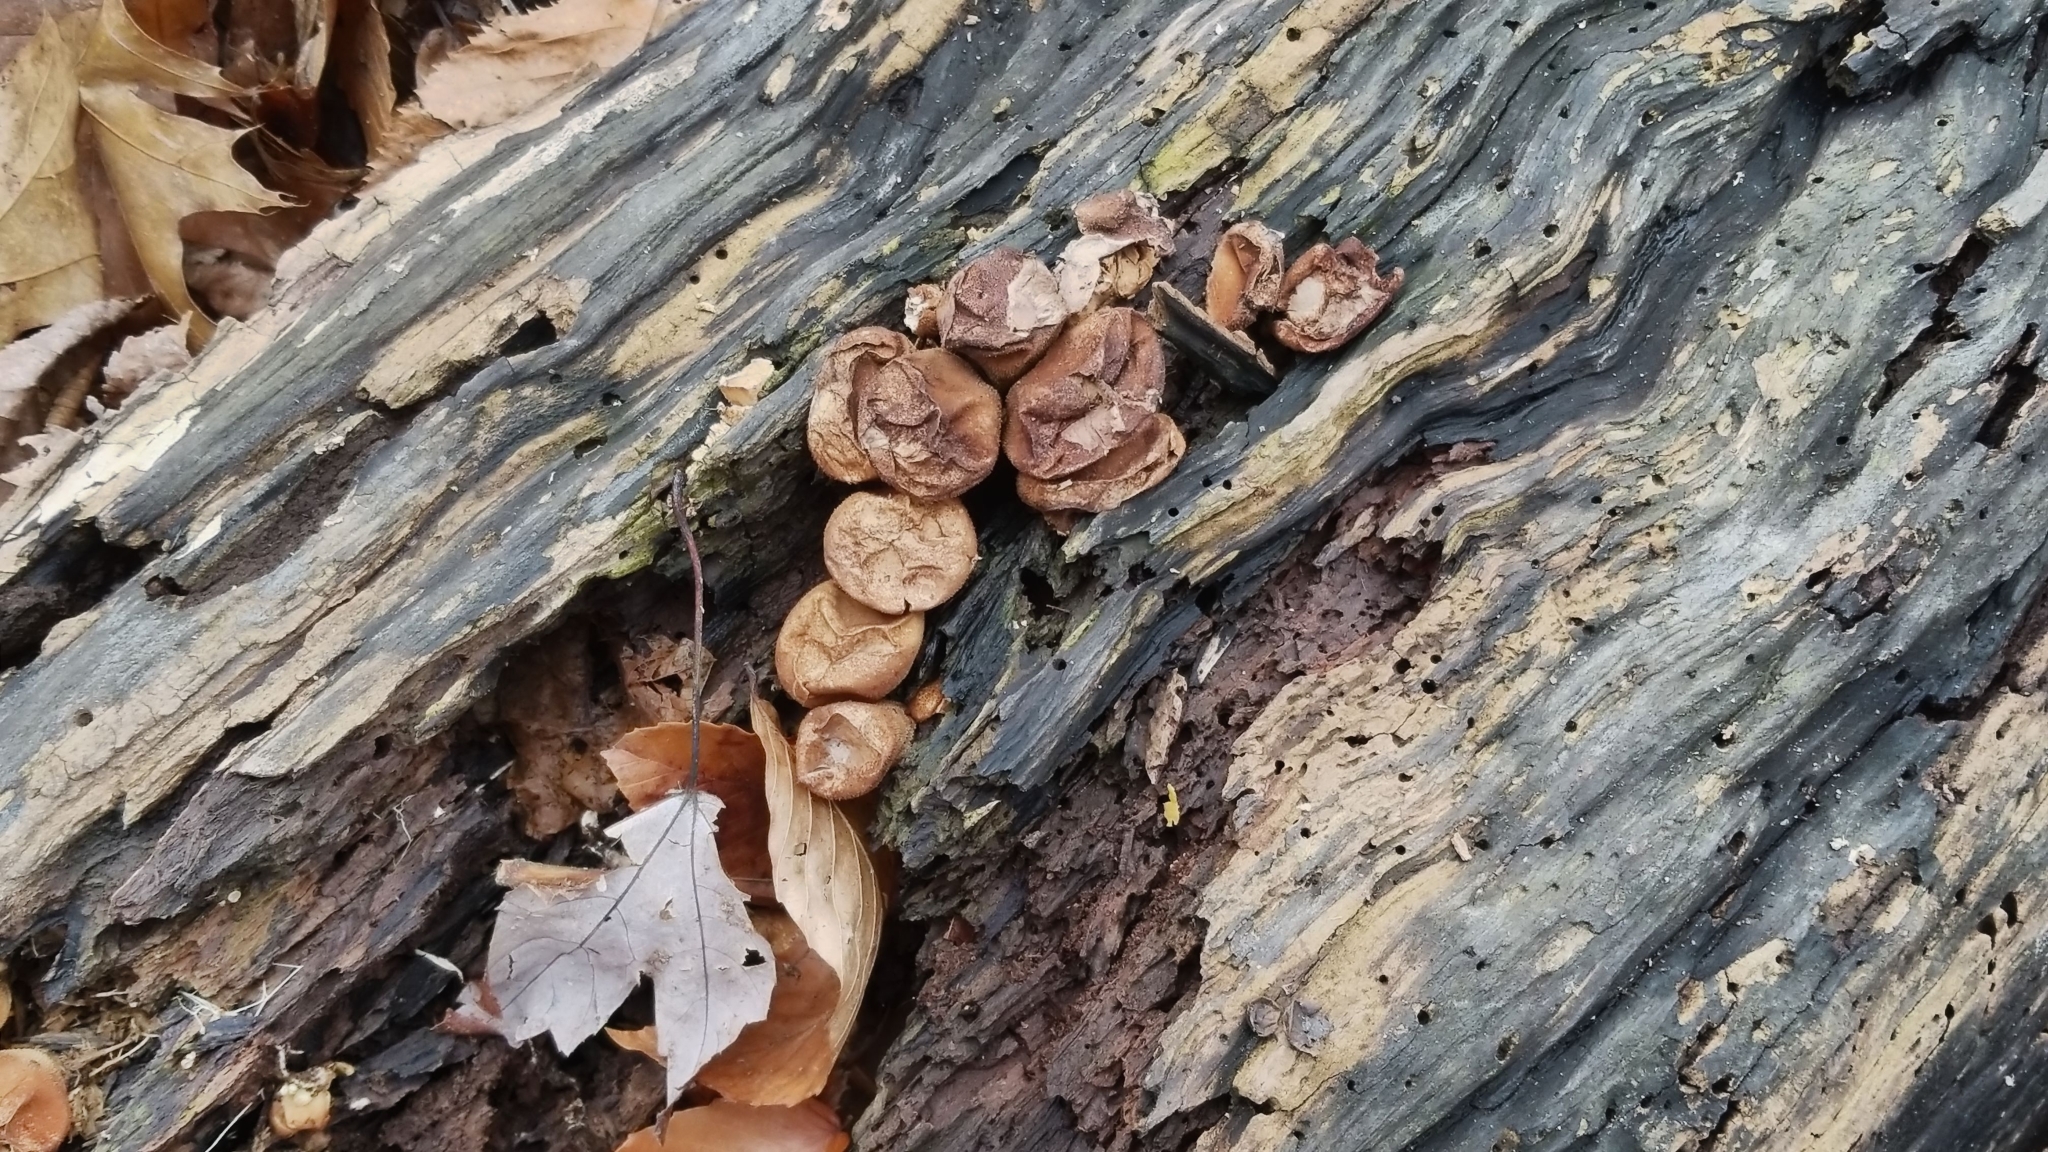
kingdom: Fungi
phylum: Basidiomycota
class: Agaricomycetes
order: Agaricales
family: Lycoperdaceae
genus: Apioperdon
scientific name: Apioperdon pyriforme
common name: Pear-shaped puffball
